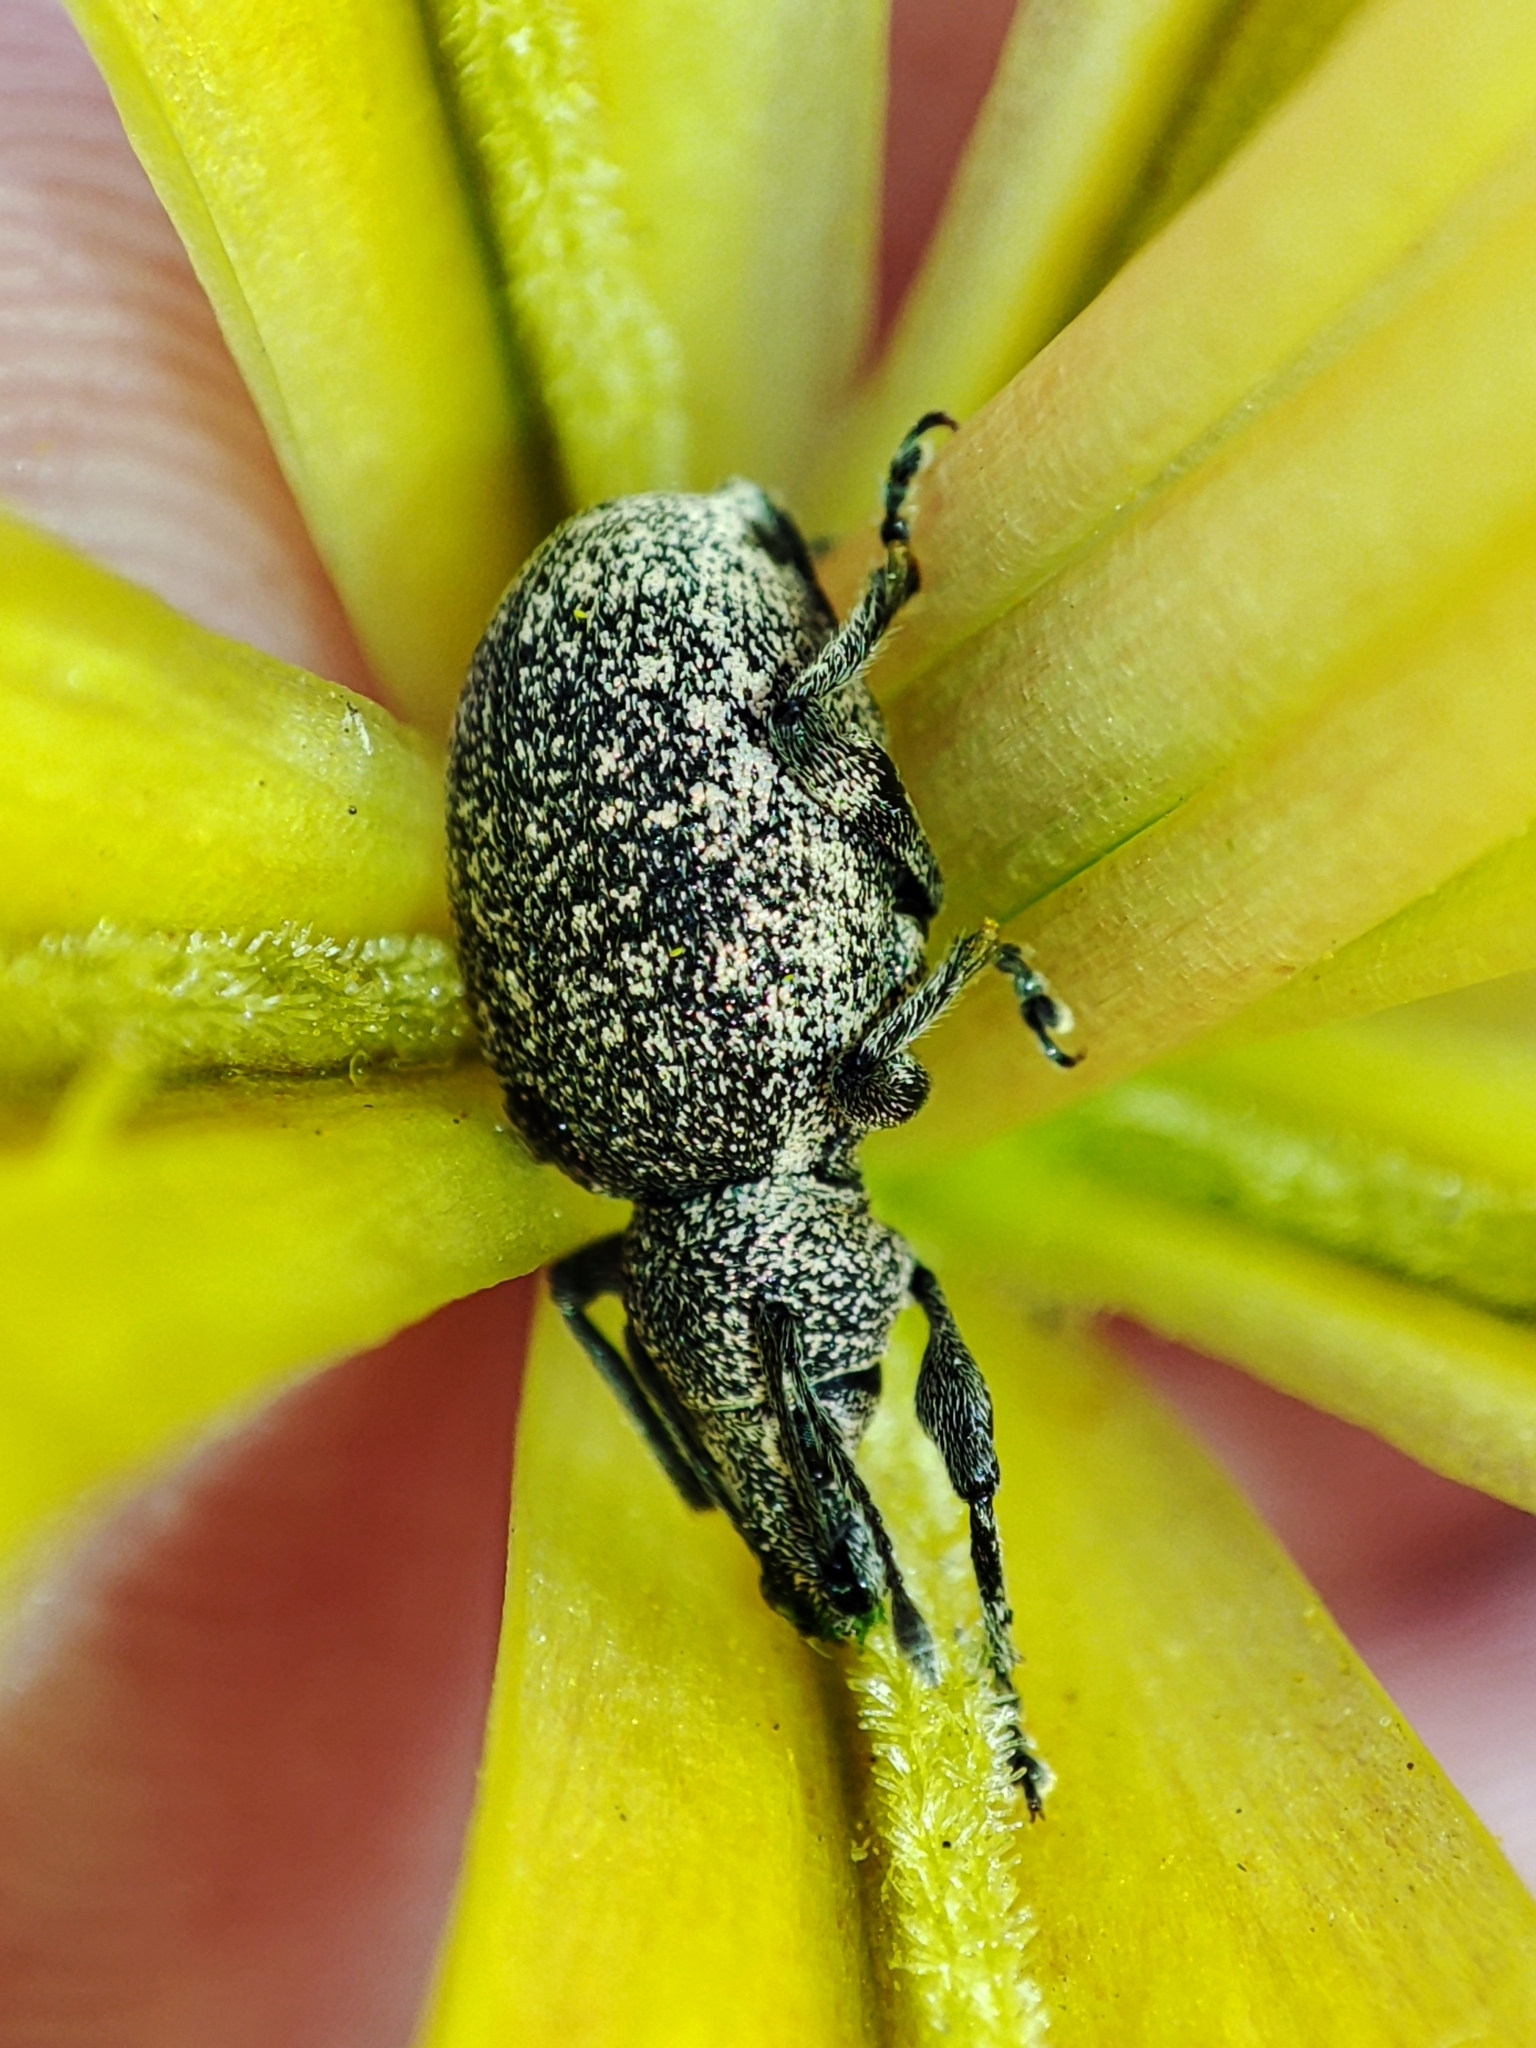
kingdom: Animalia
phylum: Arthropoda
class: Insecta
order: Coleoptera
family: Curculionidae
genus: Otiorhynchus
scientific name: Otiorhynchus aurosparsus
